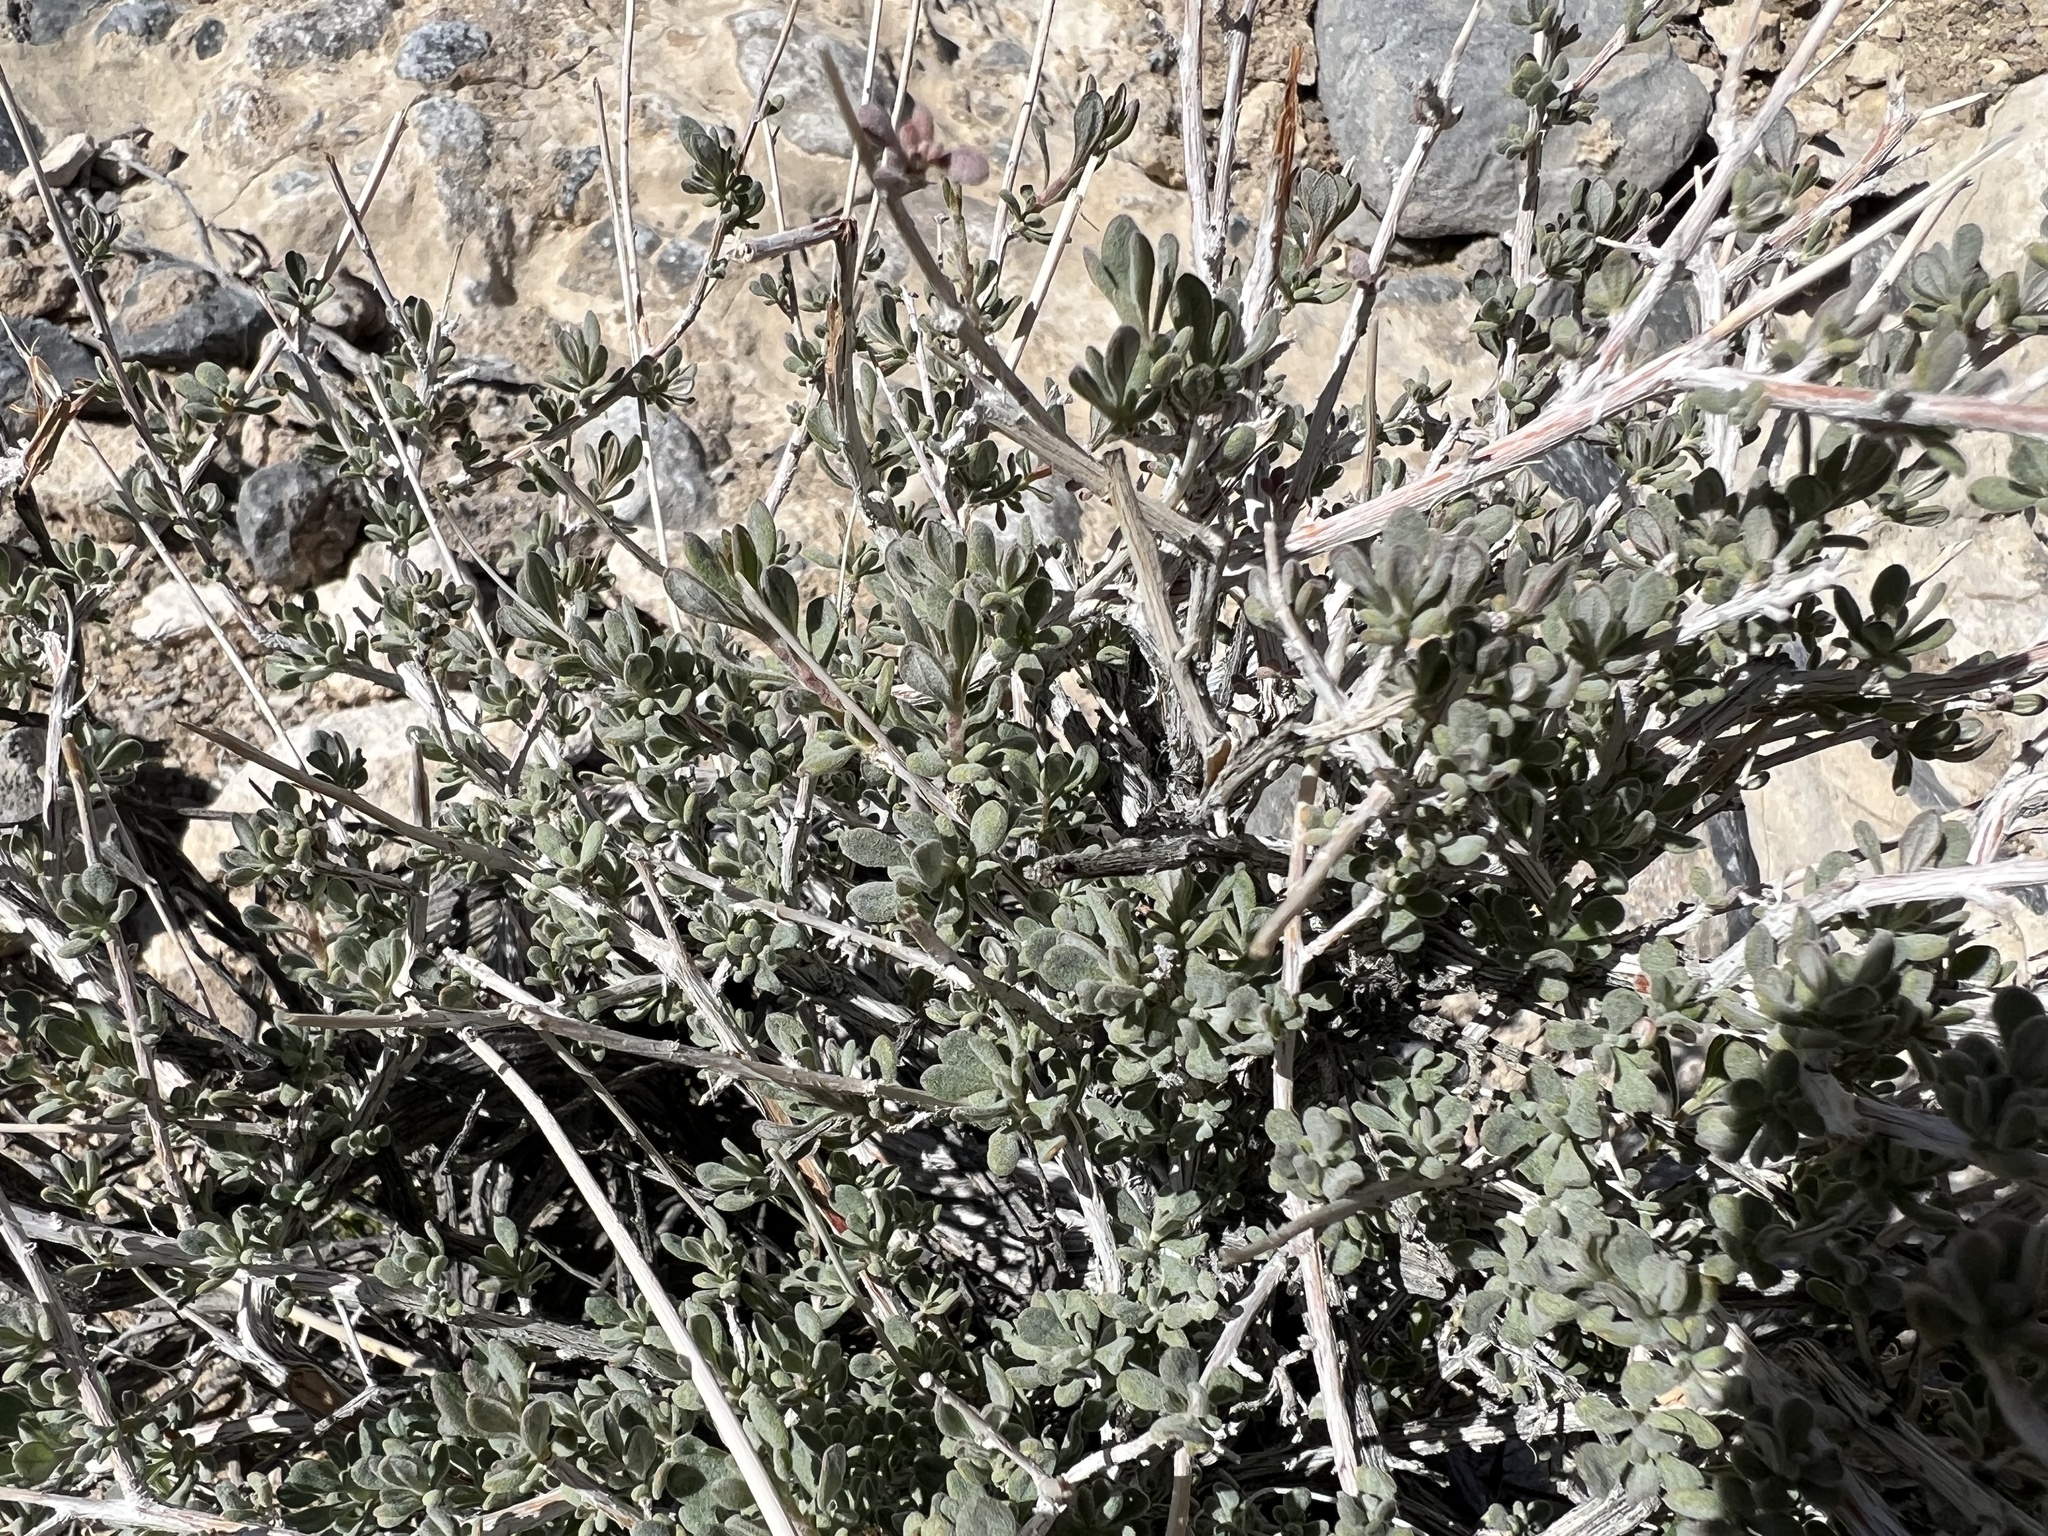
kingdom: Plantae
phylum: Tracheophyta
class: Magnoliopsida
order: Caryophyllales
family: Polygonaceae
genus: Eriogonum
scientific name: Eriogonum fasciculatum
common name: California wild buckwheat
